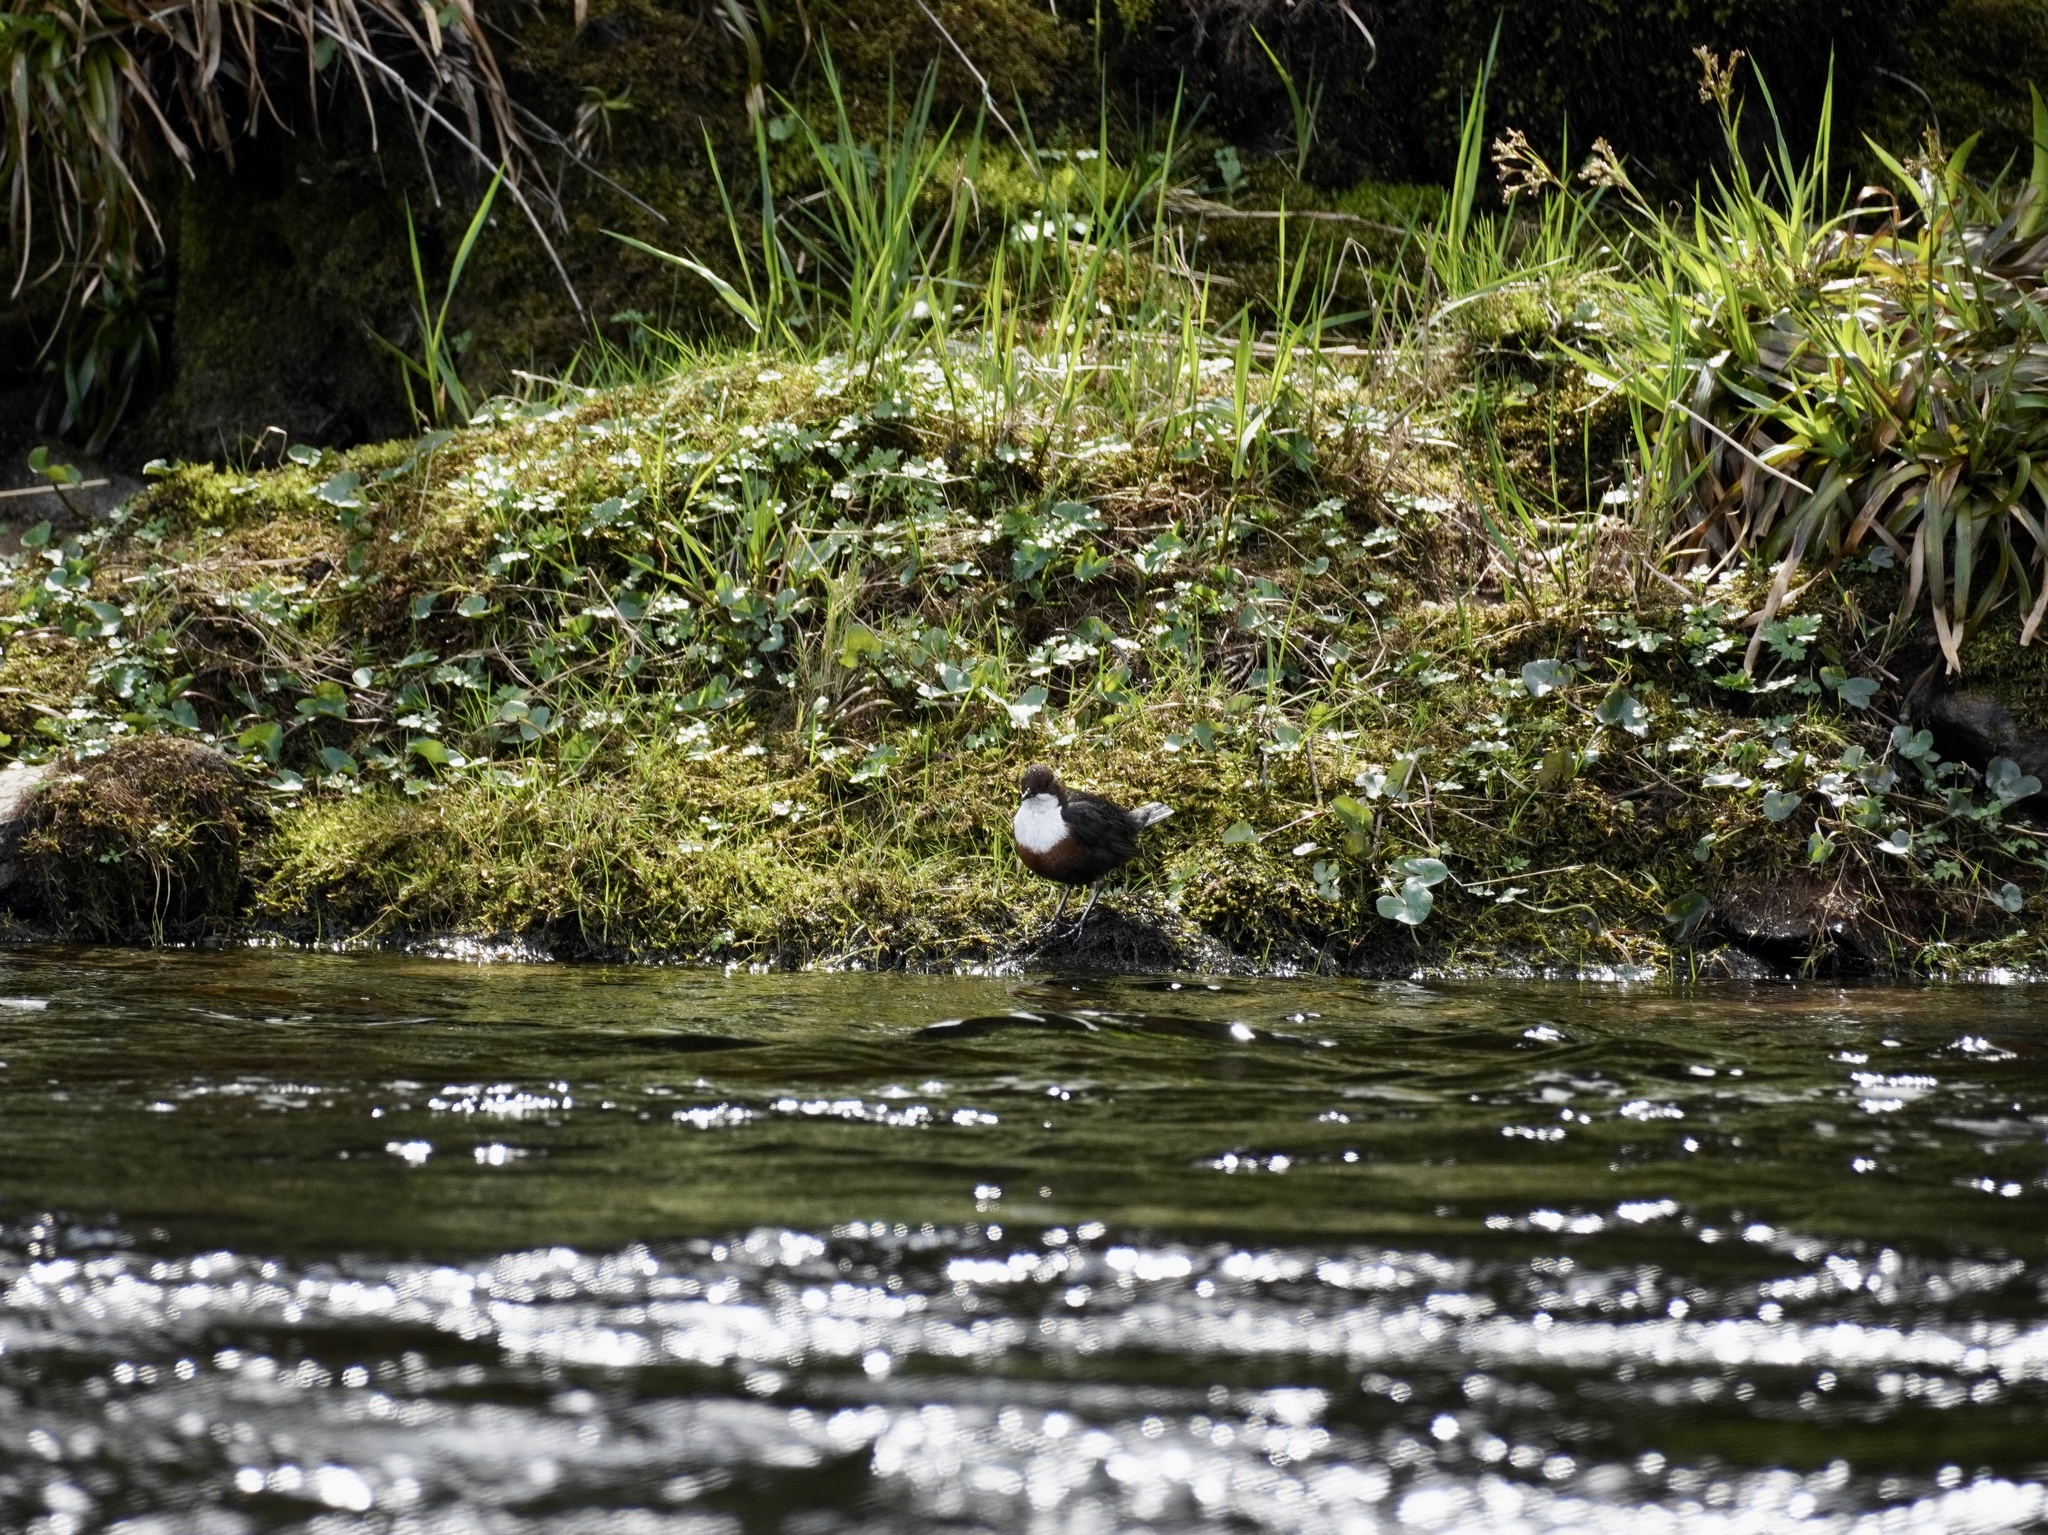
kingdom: Animalia
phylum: Chordata
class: Aves
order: Passeriformes
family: Cinclidae
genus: Cinclus
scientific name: Cinclus cinclus
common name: White-throated dipper
